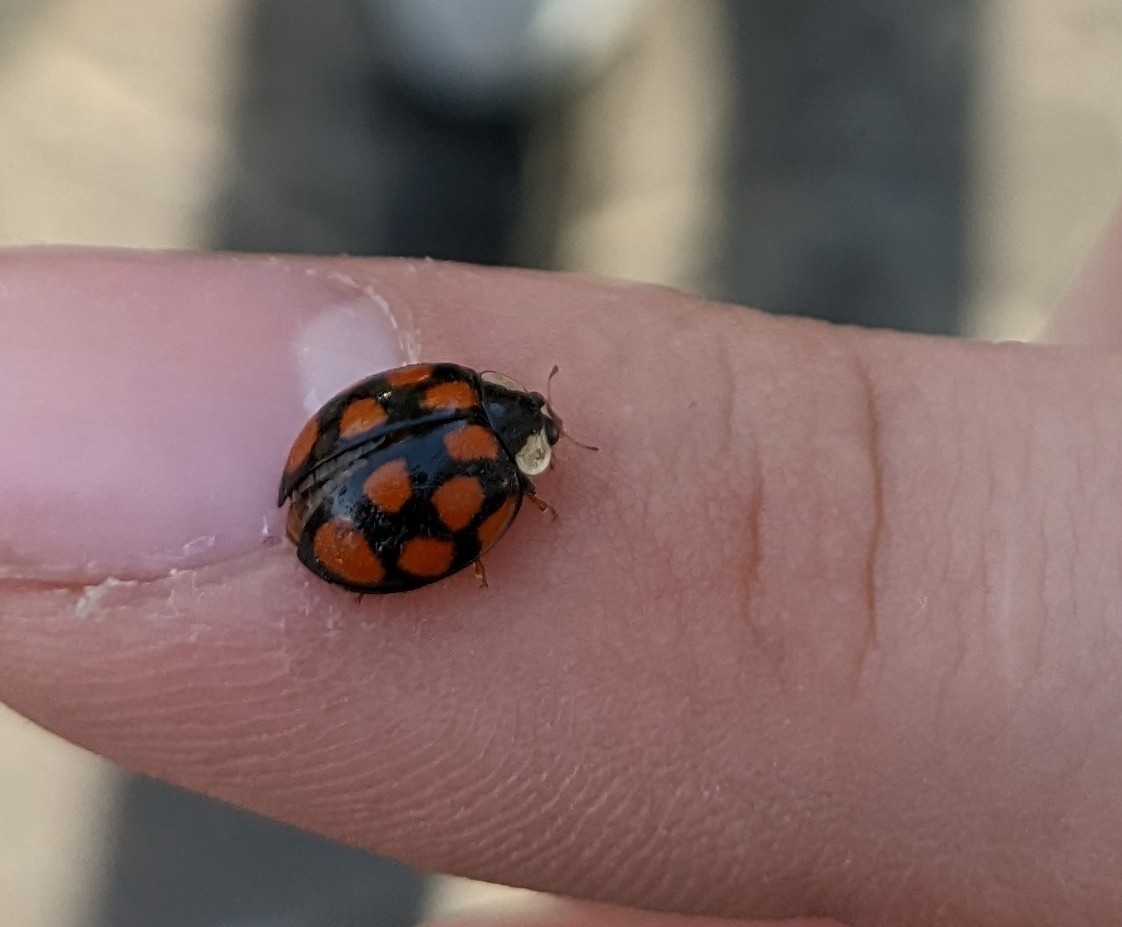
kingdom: Animalia
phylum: Arthropoda
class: Insecta
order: Coleoptera
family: Coccinellidae
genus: Harmonia
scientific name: Harmonia axyridis
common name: Harlequin ladybird
